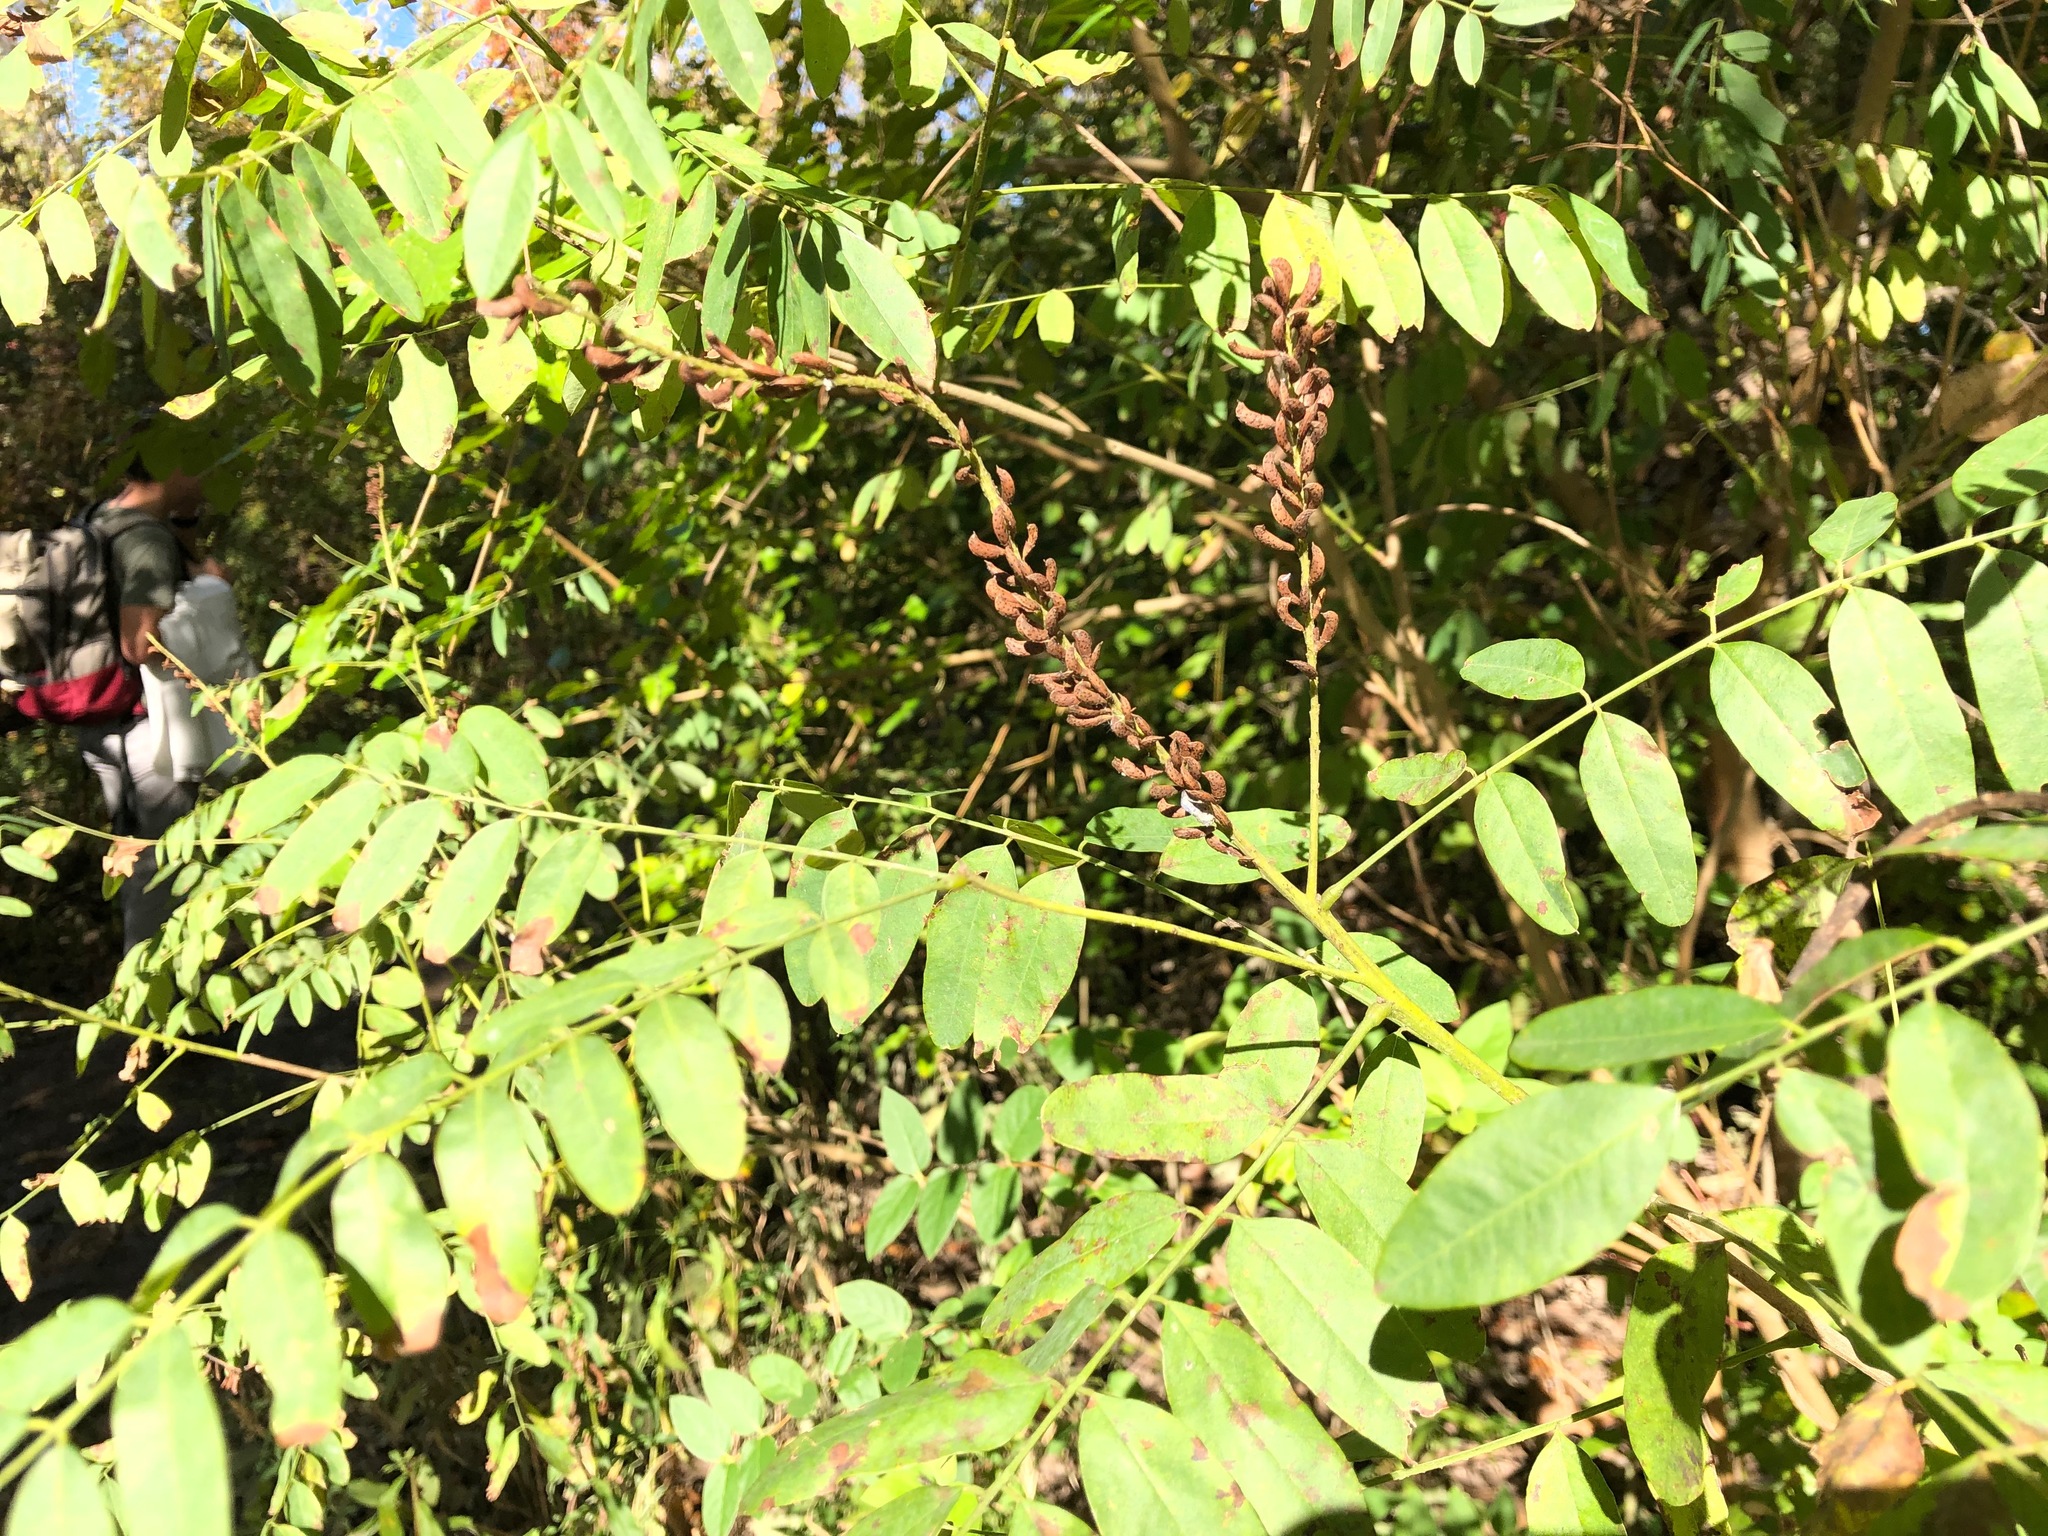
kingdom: Plantae
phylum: Tracheophyta
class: Magnoliopsida
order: Fabales
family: Fabaceae
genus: Amorpha
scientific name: Amorpha fruticosa
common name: False indigo
